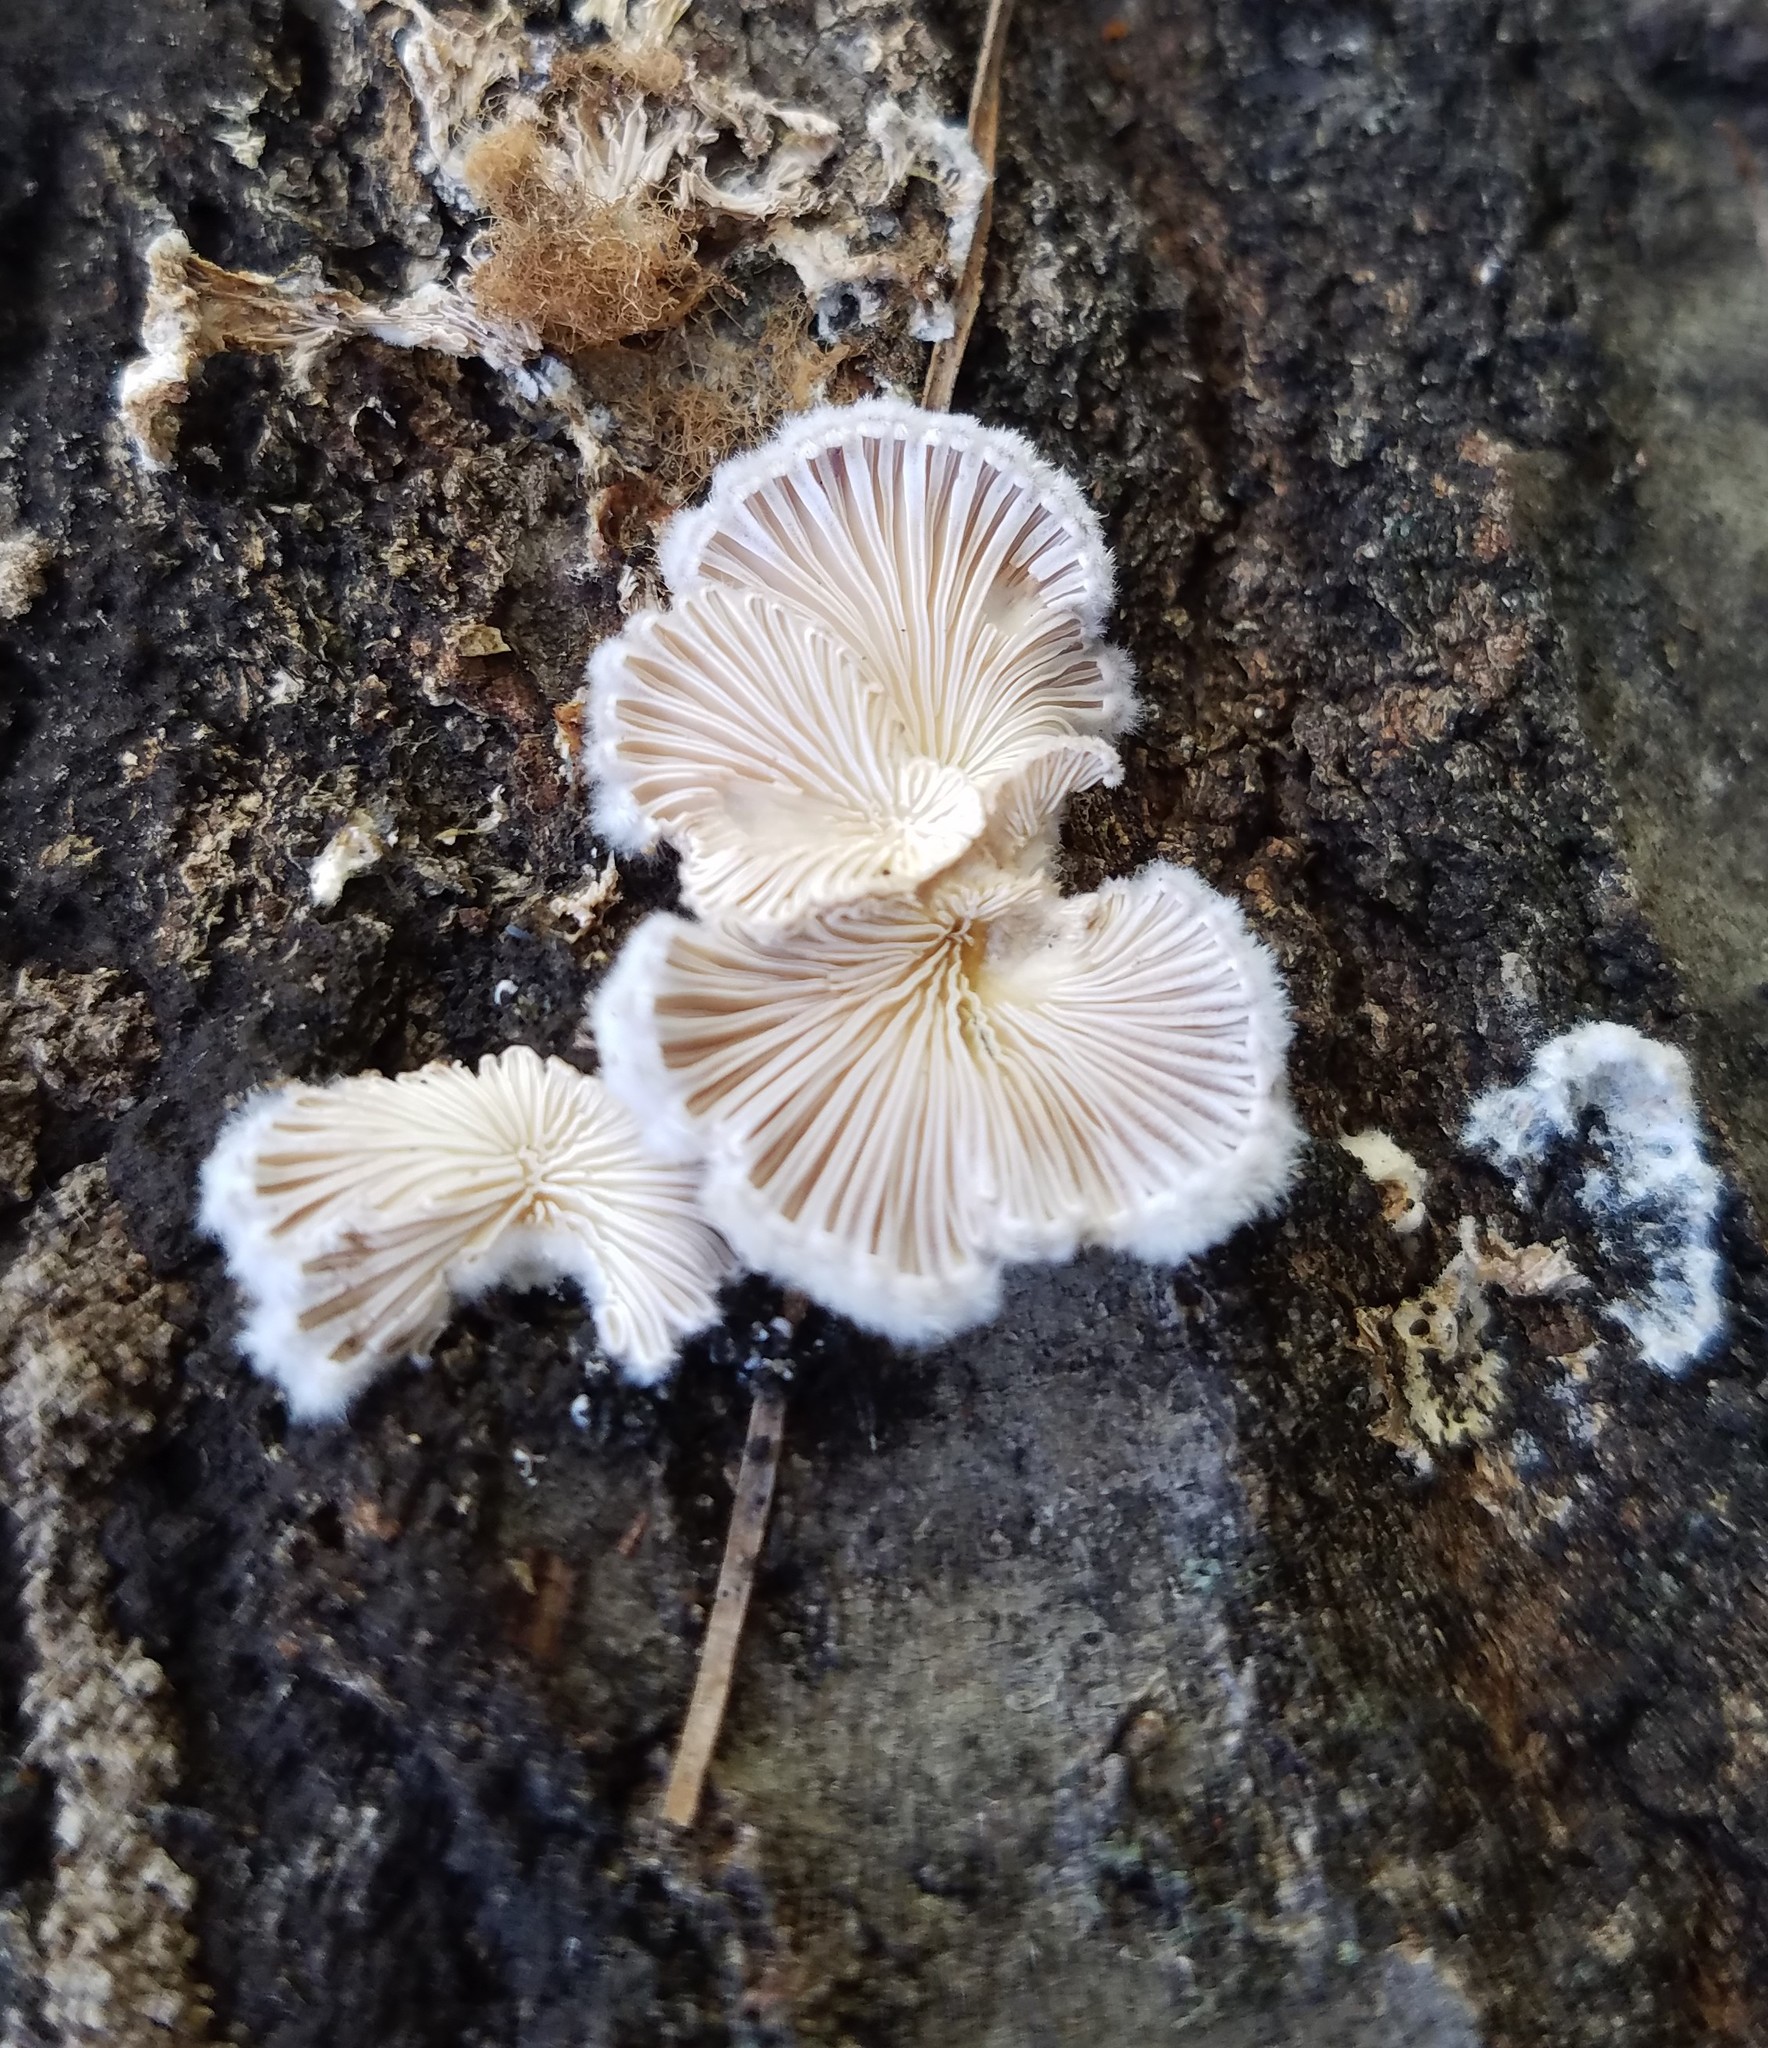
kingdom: Fungi
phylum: Basidiomycota
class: Agaricomycetes
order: Agaricales
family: Schizophyllaceae
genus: Schizophyllum
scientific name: Schizophyllum commune
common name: Common porecrust
